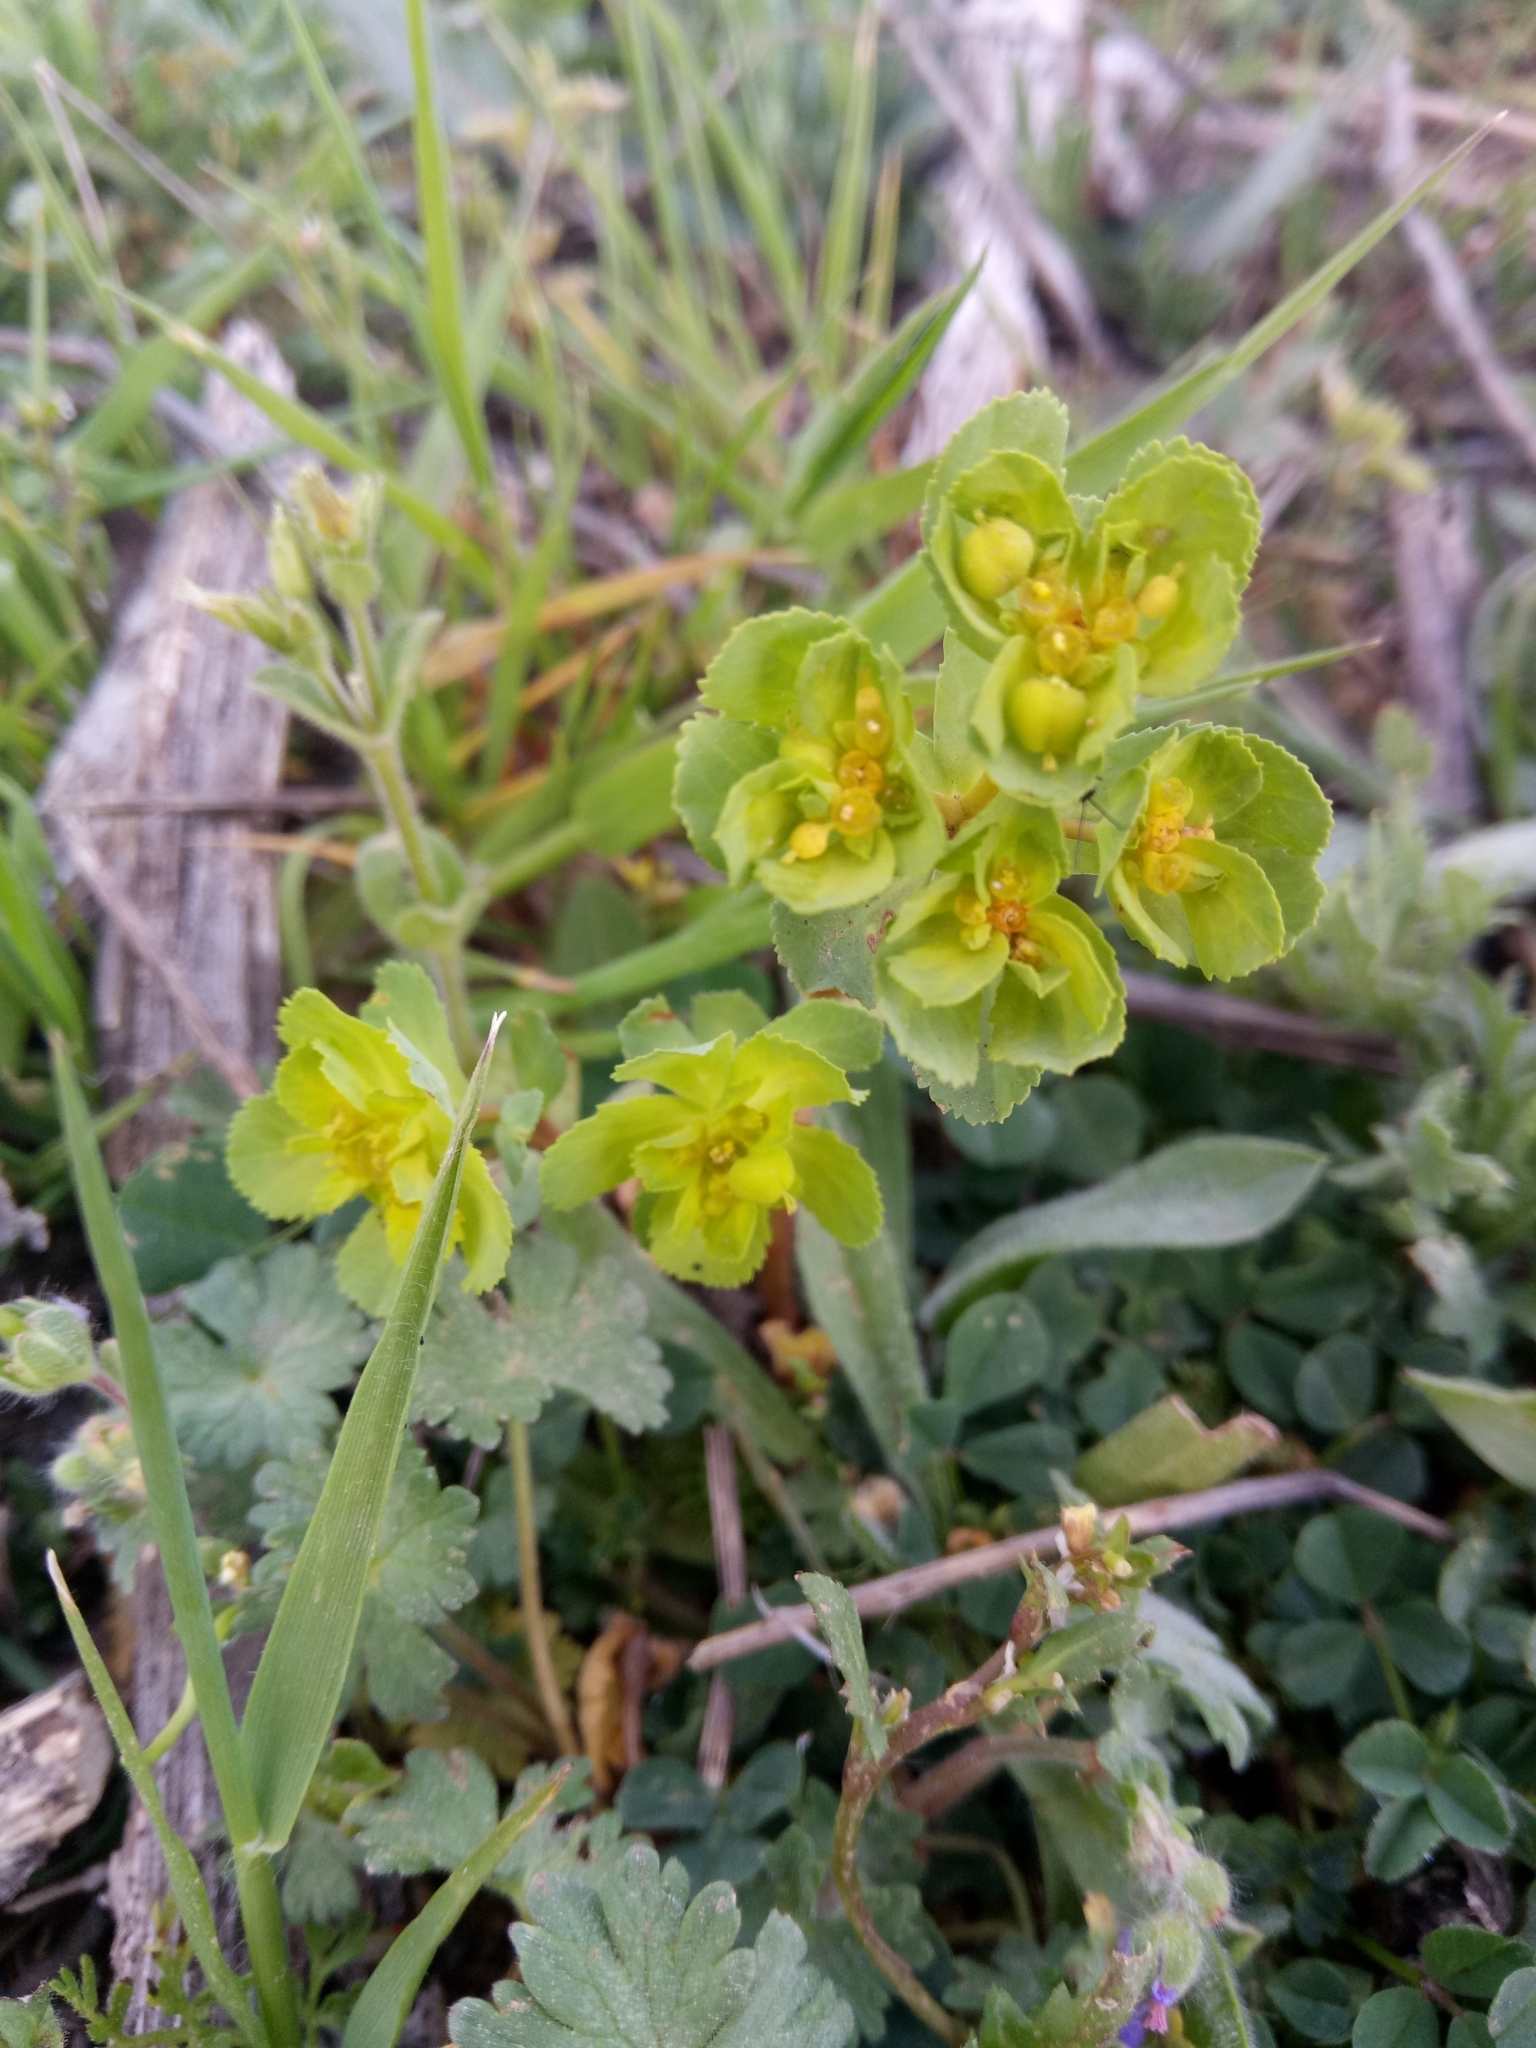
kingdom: Plantae
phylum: Tracheophyta
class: Magnoliopsida
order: Malpighiales
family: Euphorbiaceae
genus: Euphorbia
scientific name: Euphorbia helioscopia
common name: Sun spurge
